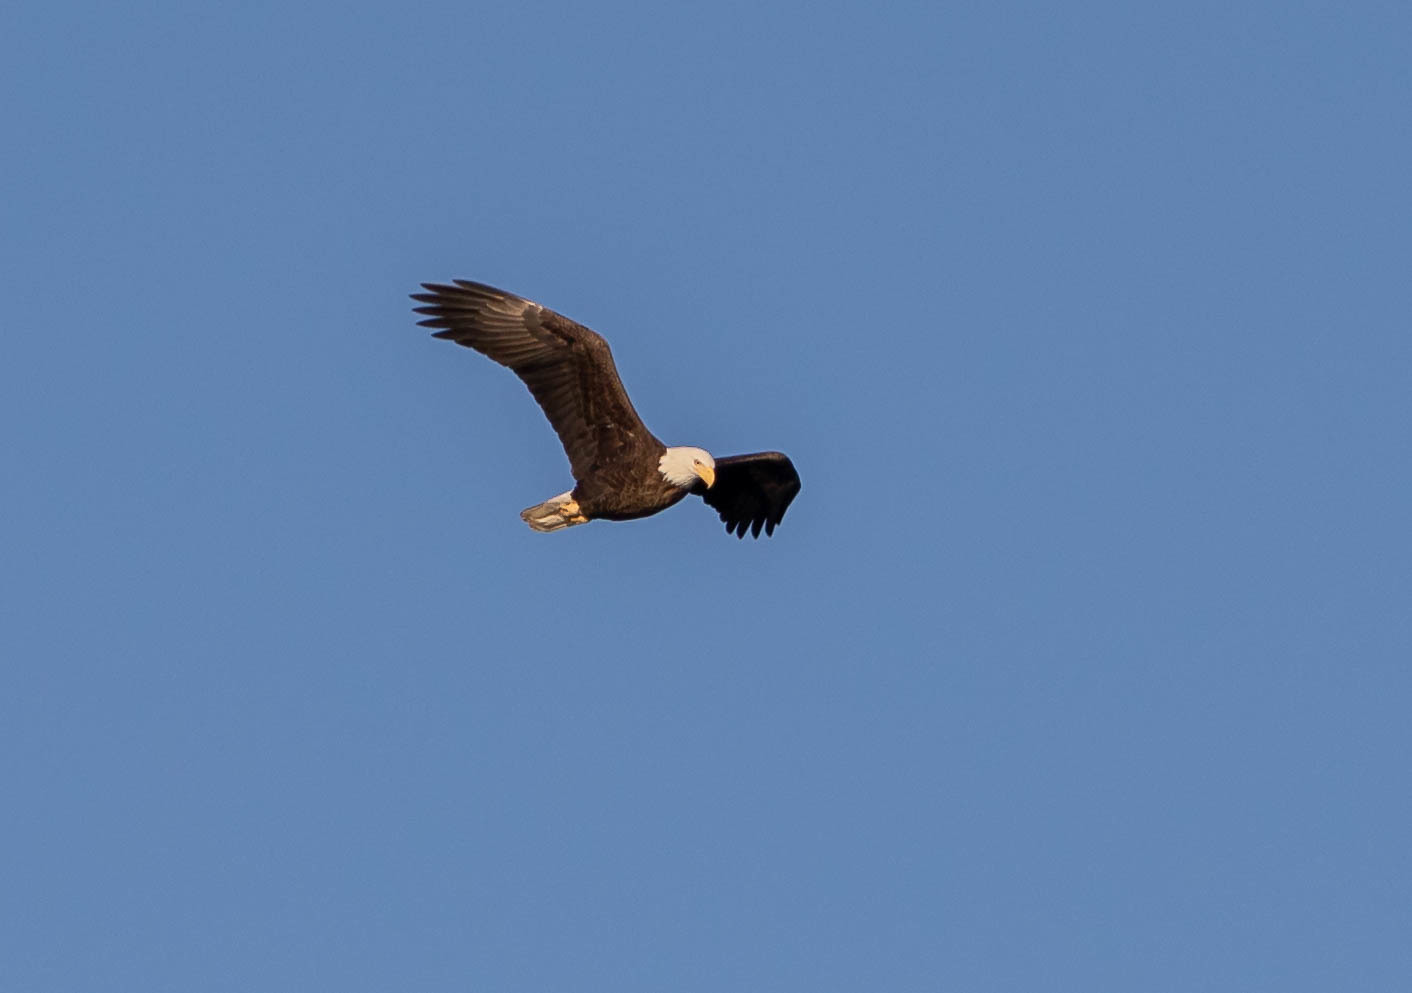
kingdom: Animalia
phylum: Chordata
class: Aves
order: Accipitriformes
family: Accipitridae
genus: Haliaeetus
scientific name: Haliaeetus leucocephalus
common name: Bald eagle
